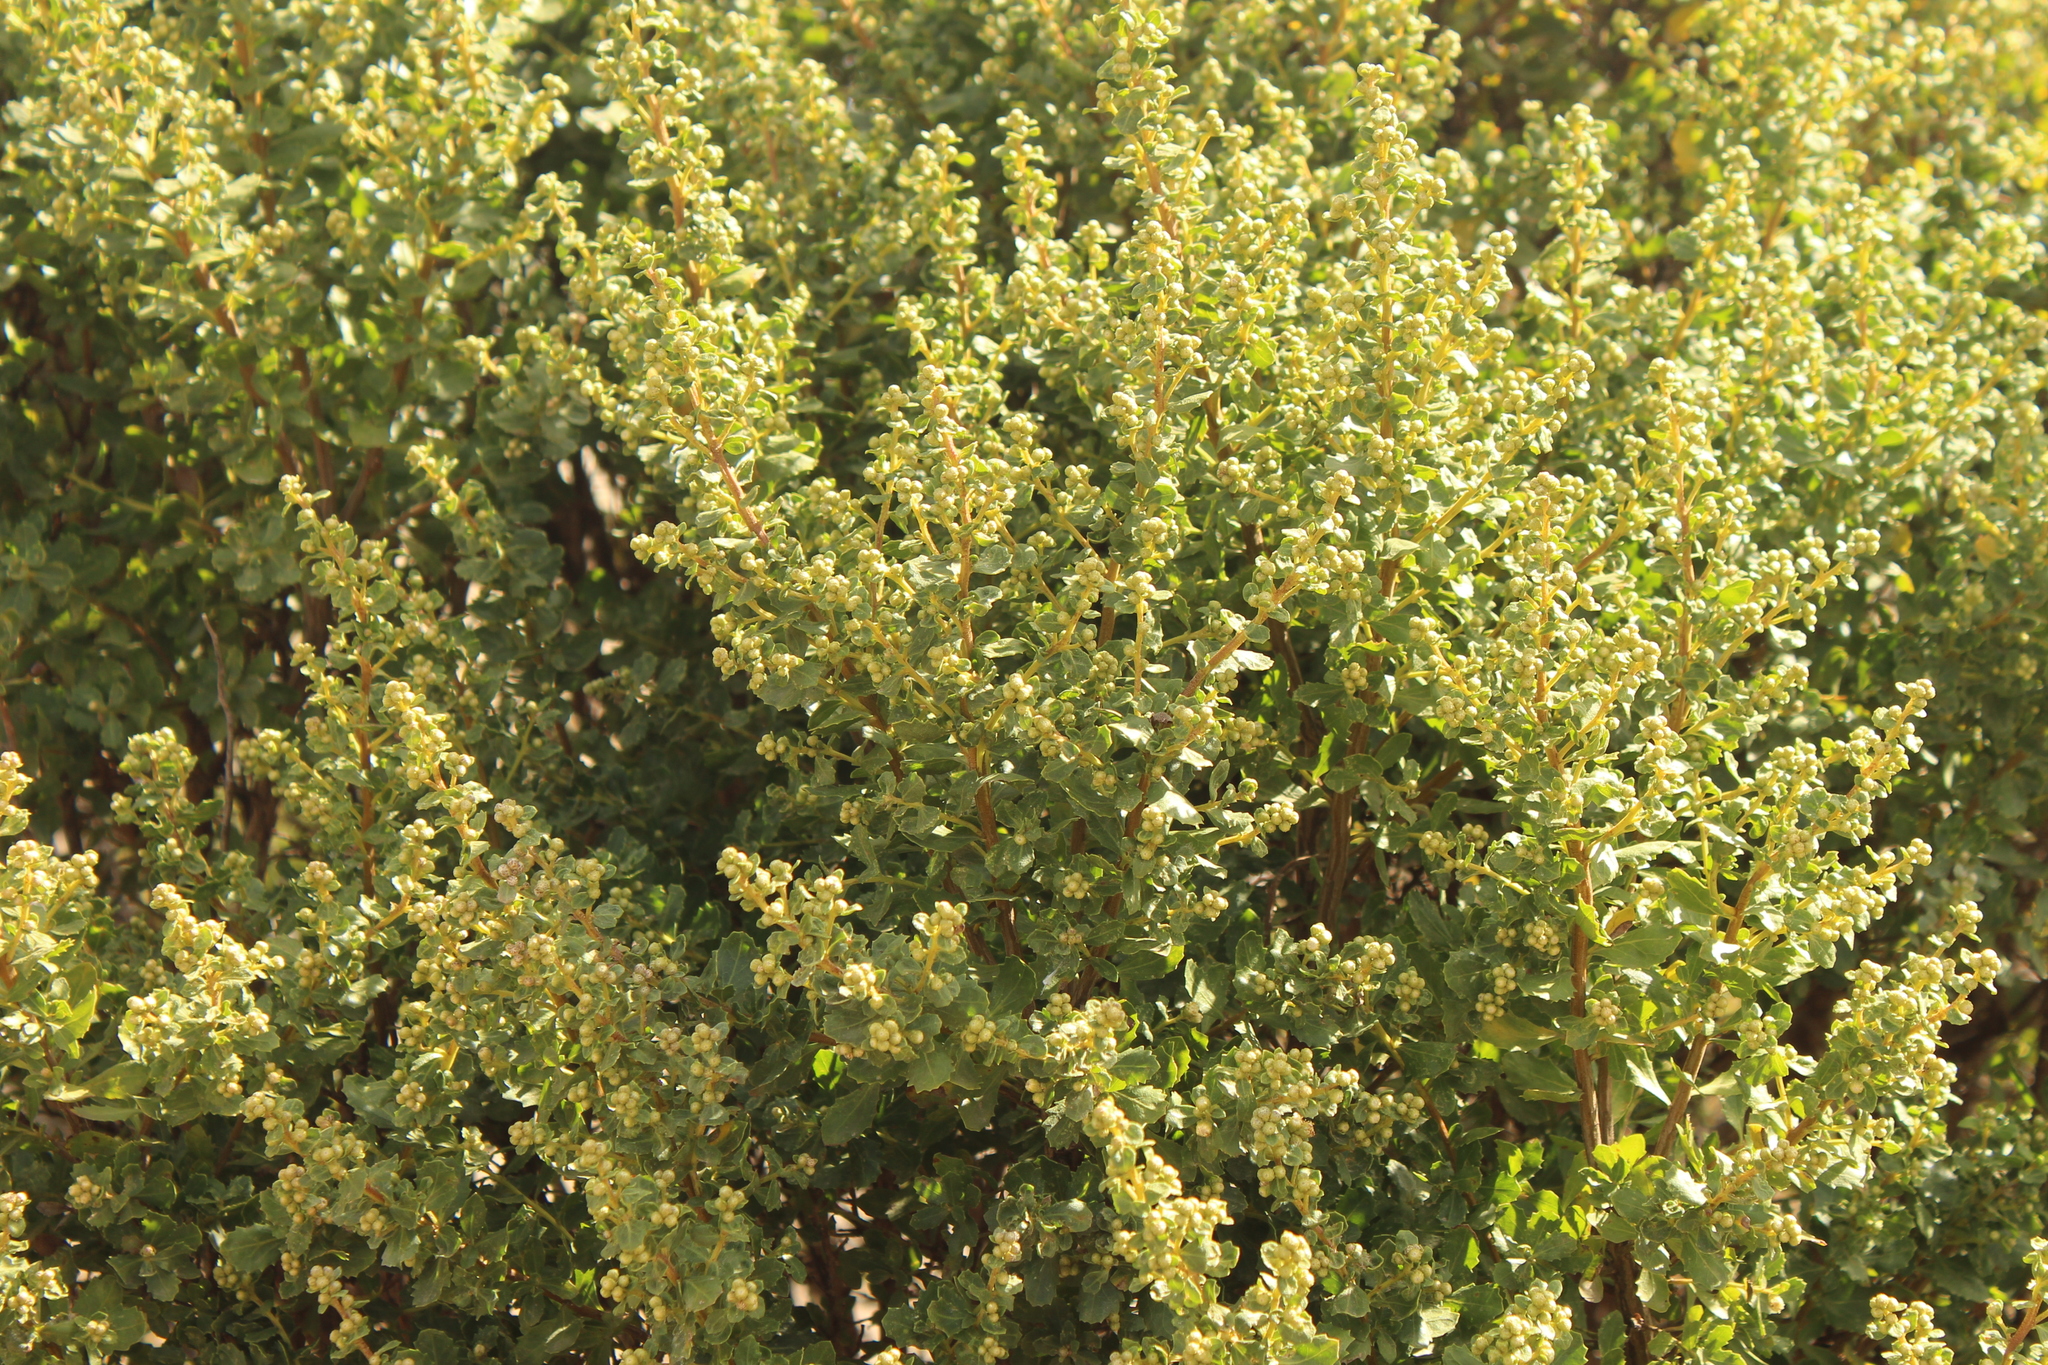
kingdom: Plantae
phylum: Tracheophyta
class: Magnoliopsida
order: Asterales
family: Asteraceae
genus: Baccharis
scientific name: Baccharis pilularis
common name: Coyotebrush
